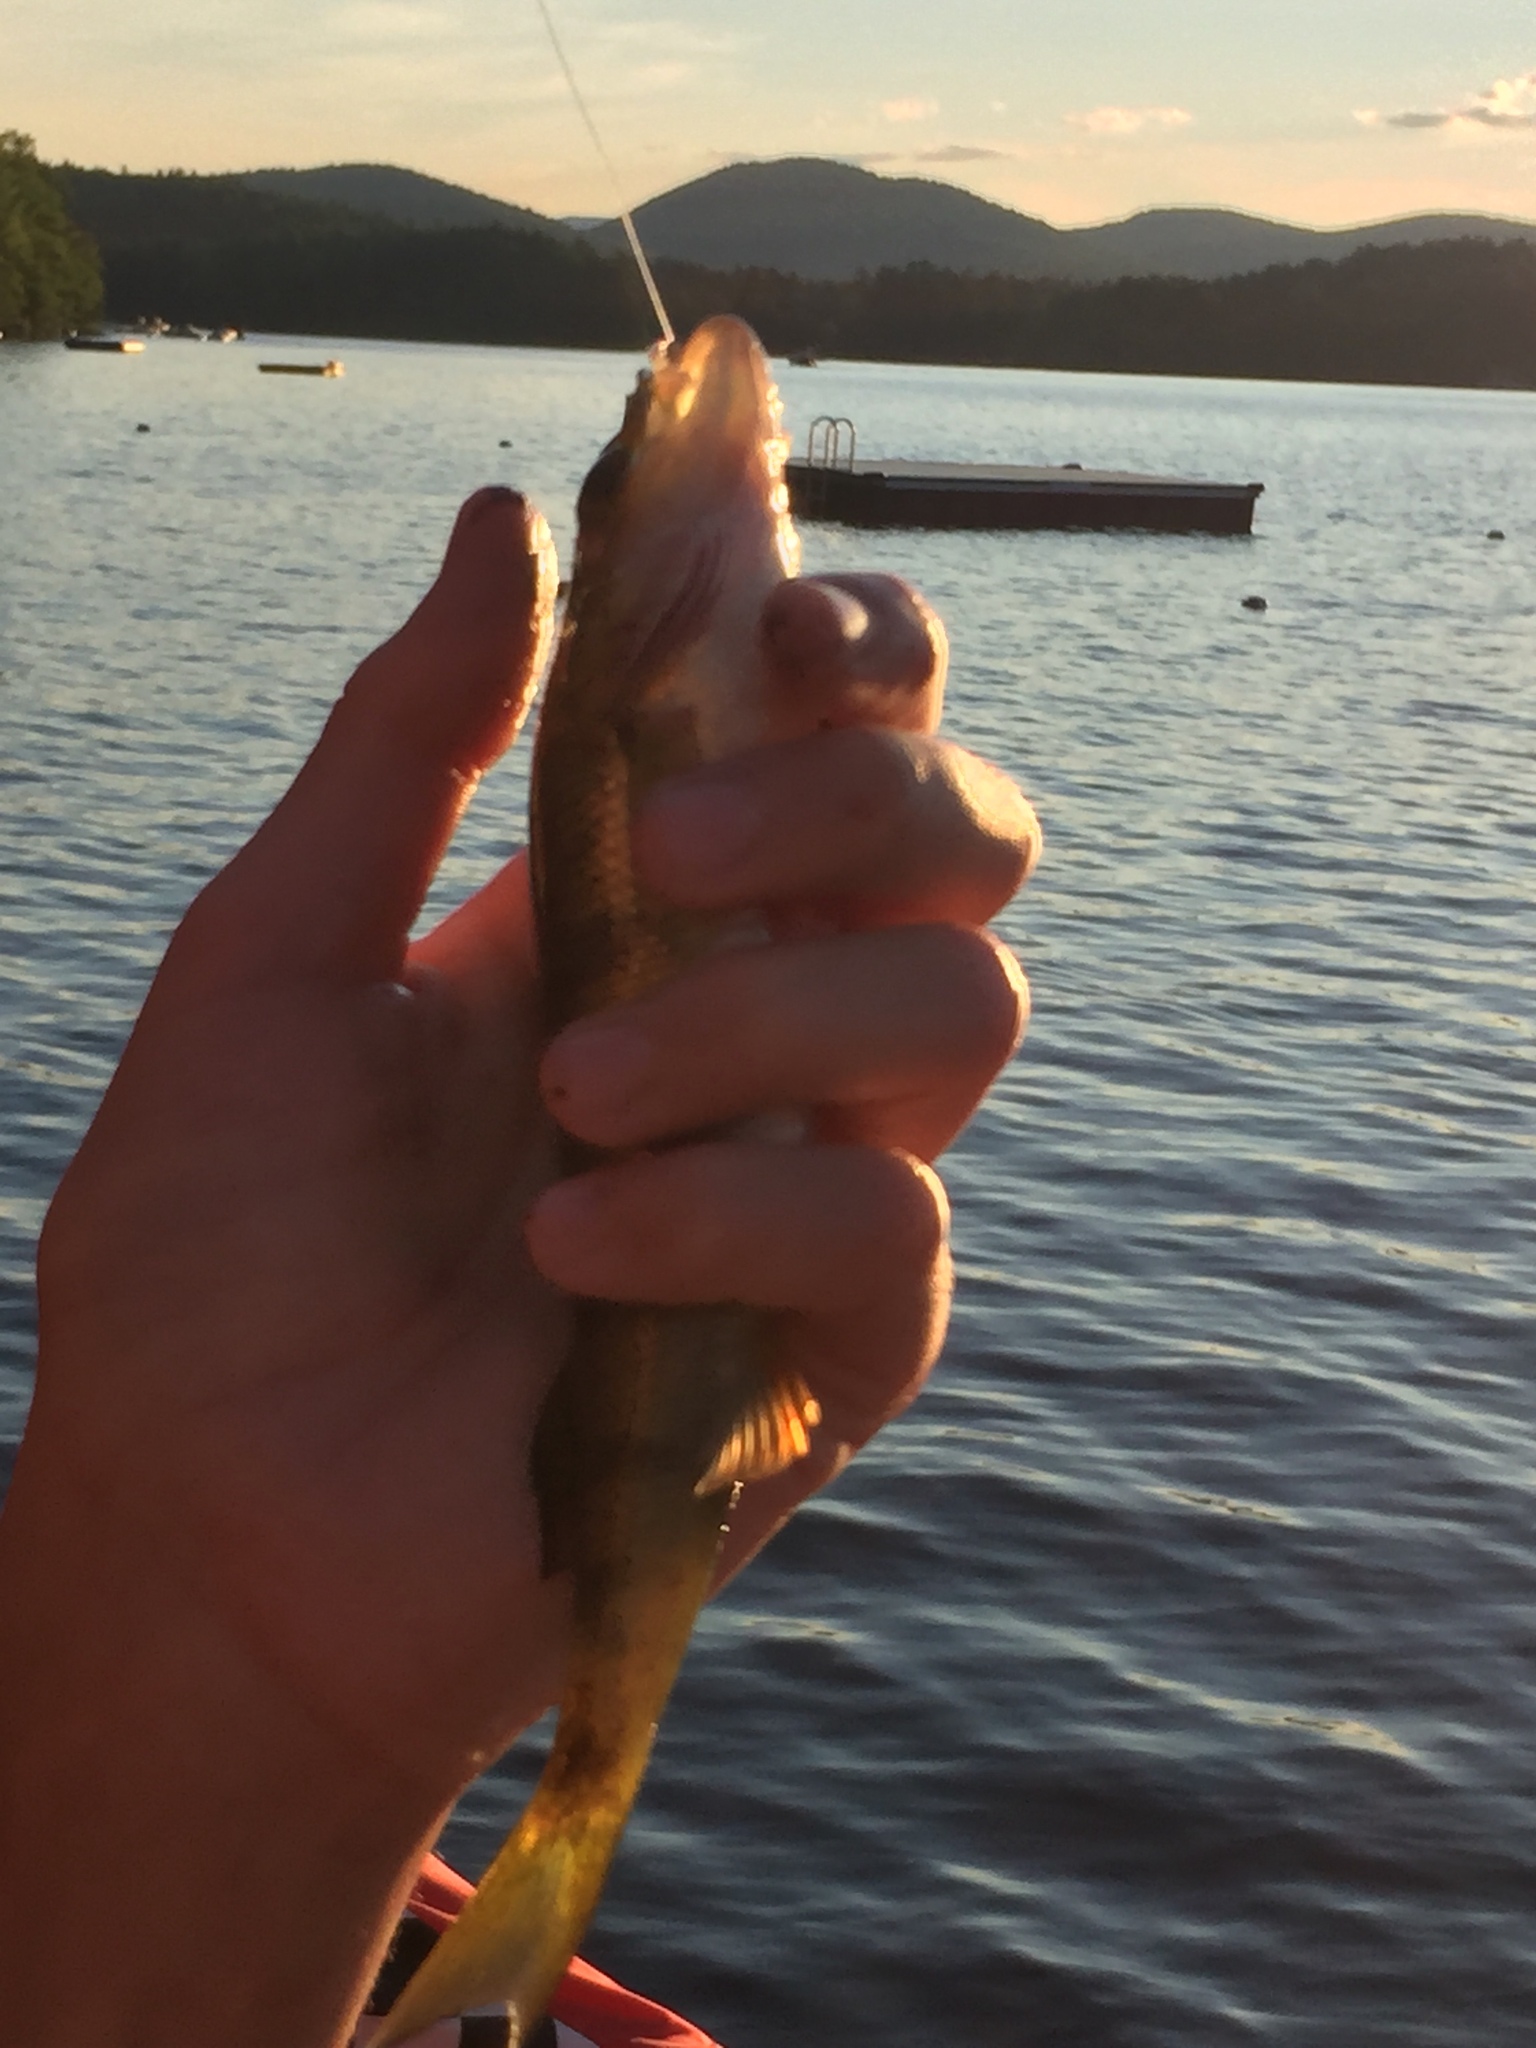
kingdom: Animalia
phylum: Chordata
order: Perciformes
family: Percidae
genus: Perca
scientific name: Perca flavescens
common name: Yellow perch
